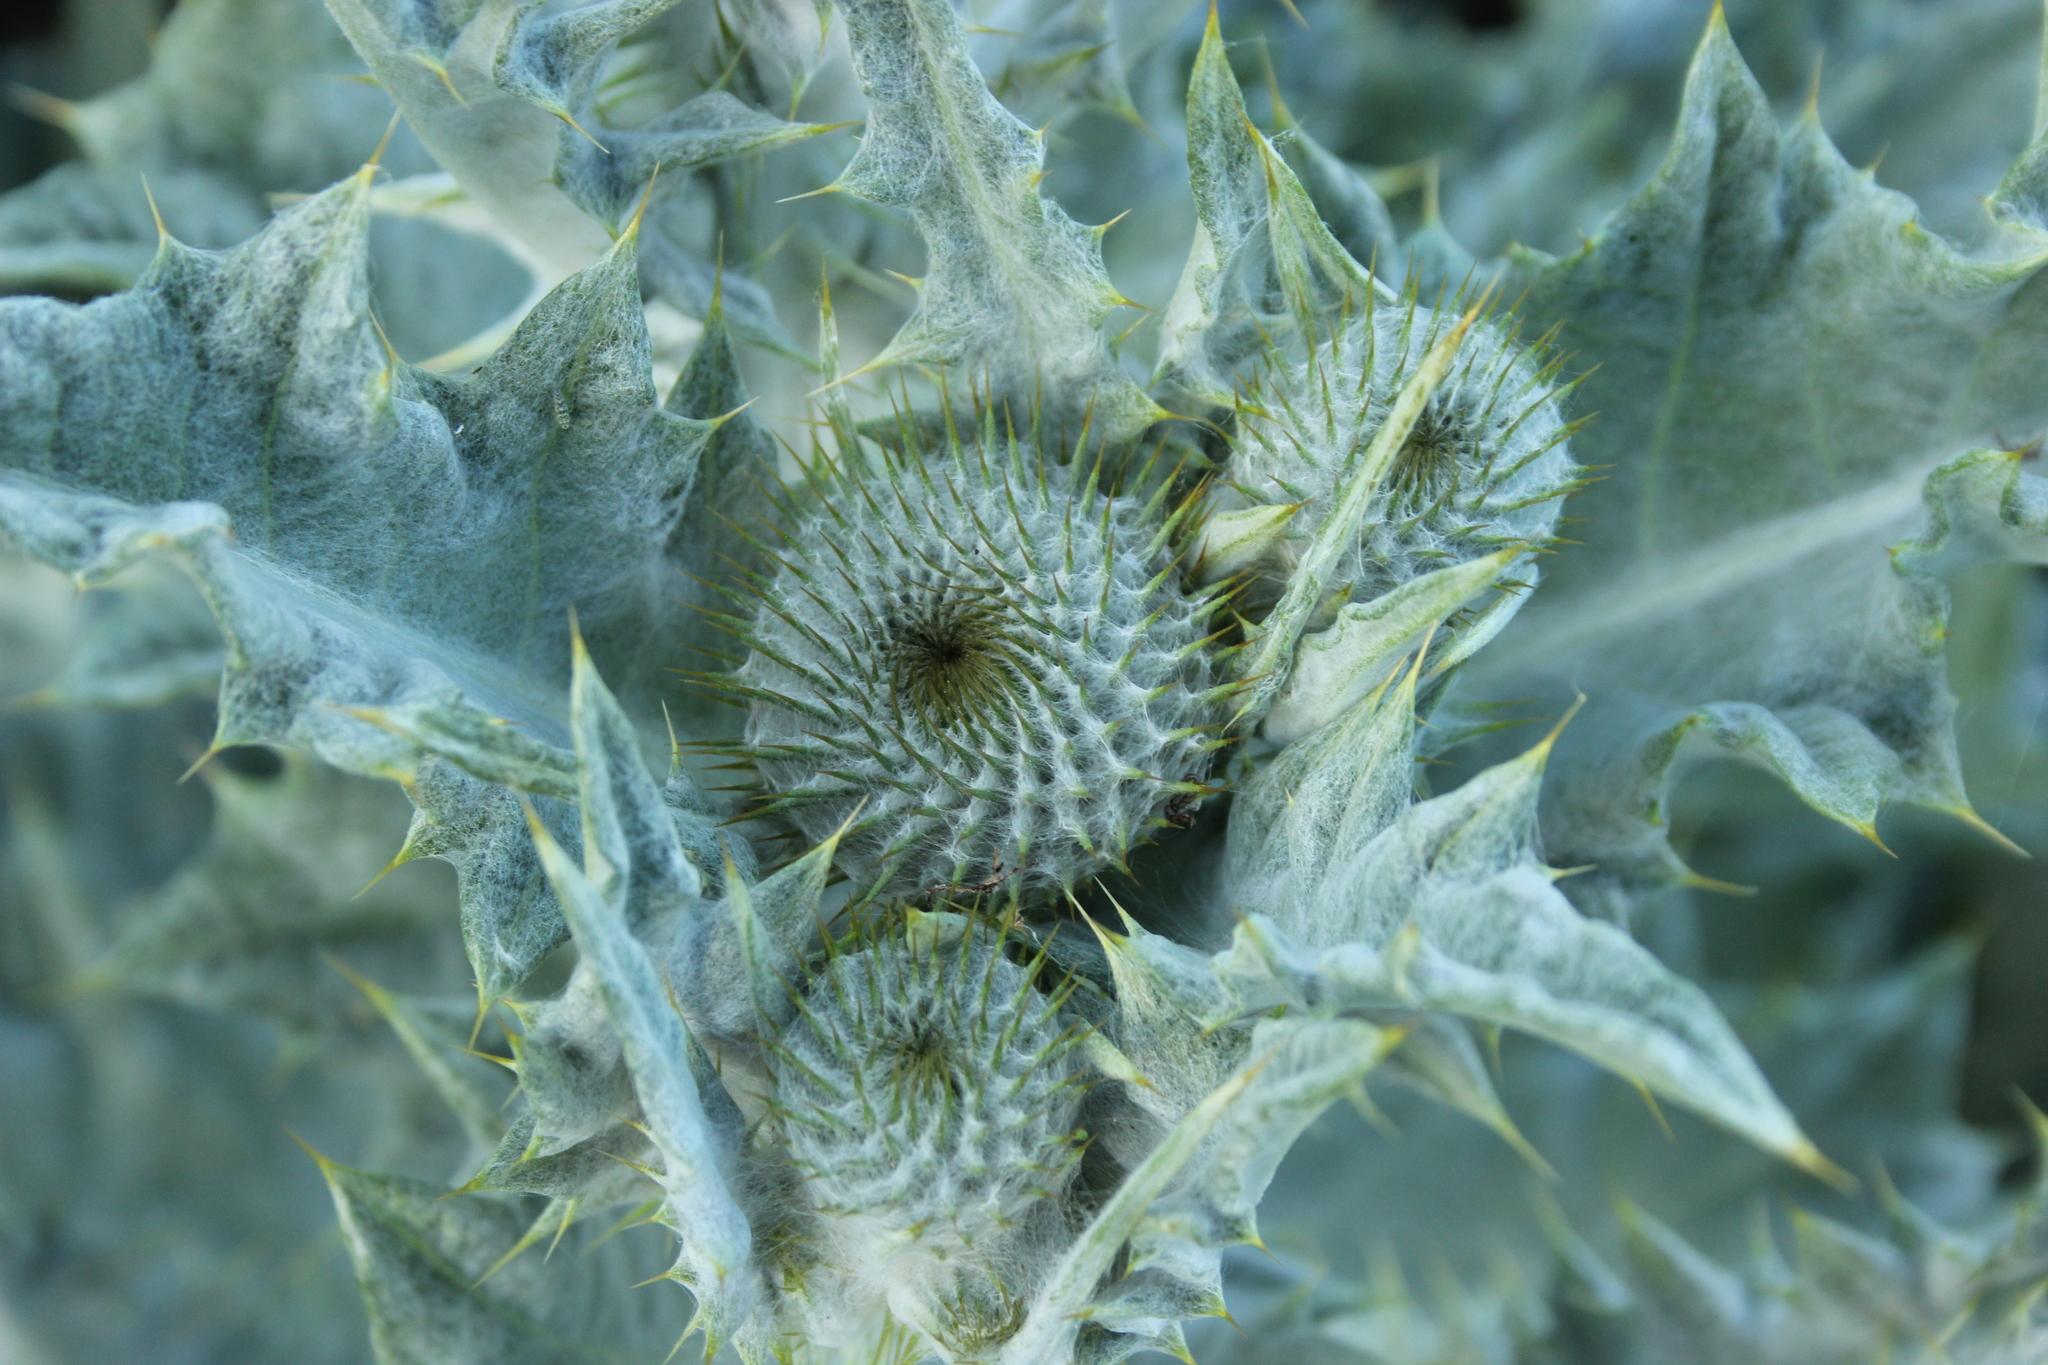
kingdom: Plantae
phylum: Tracheophyta
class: Magnoliopsida
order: Asterales
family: Asteraceae
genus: Onopordum
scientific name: Onopordum acanthium
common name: Scotch thistle
